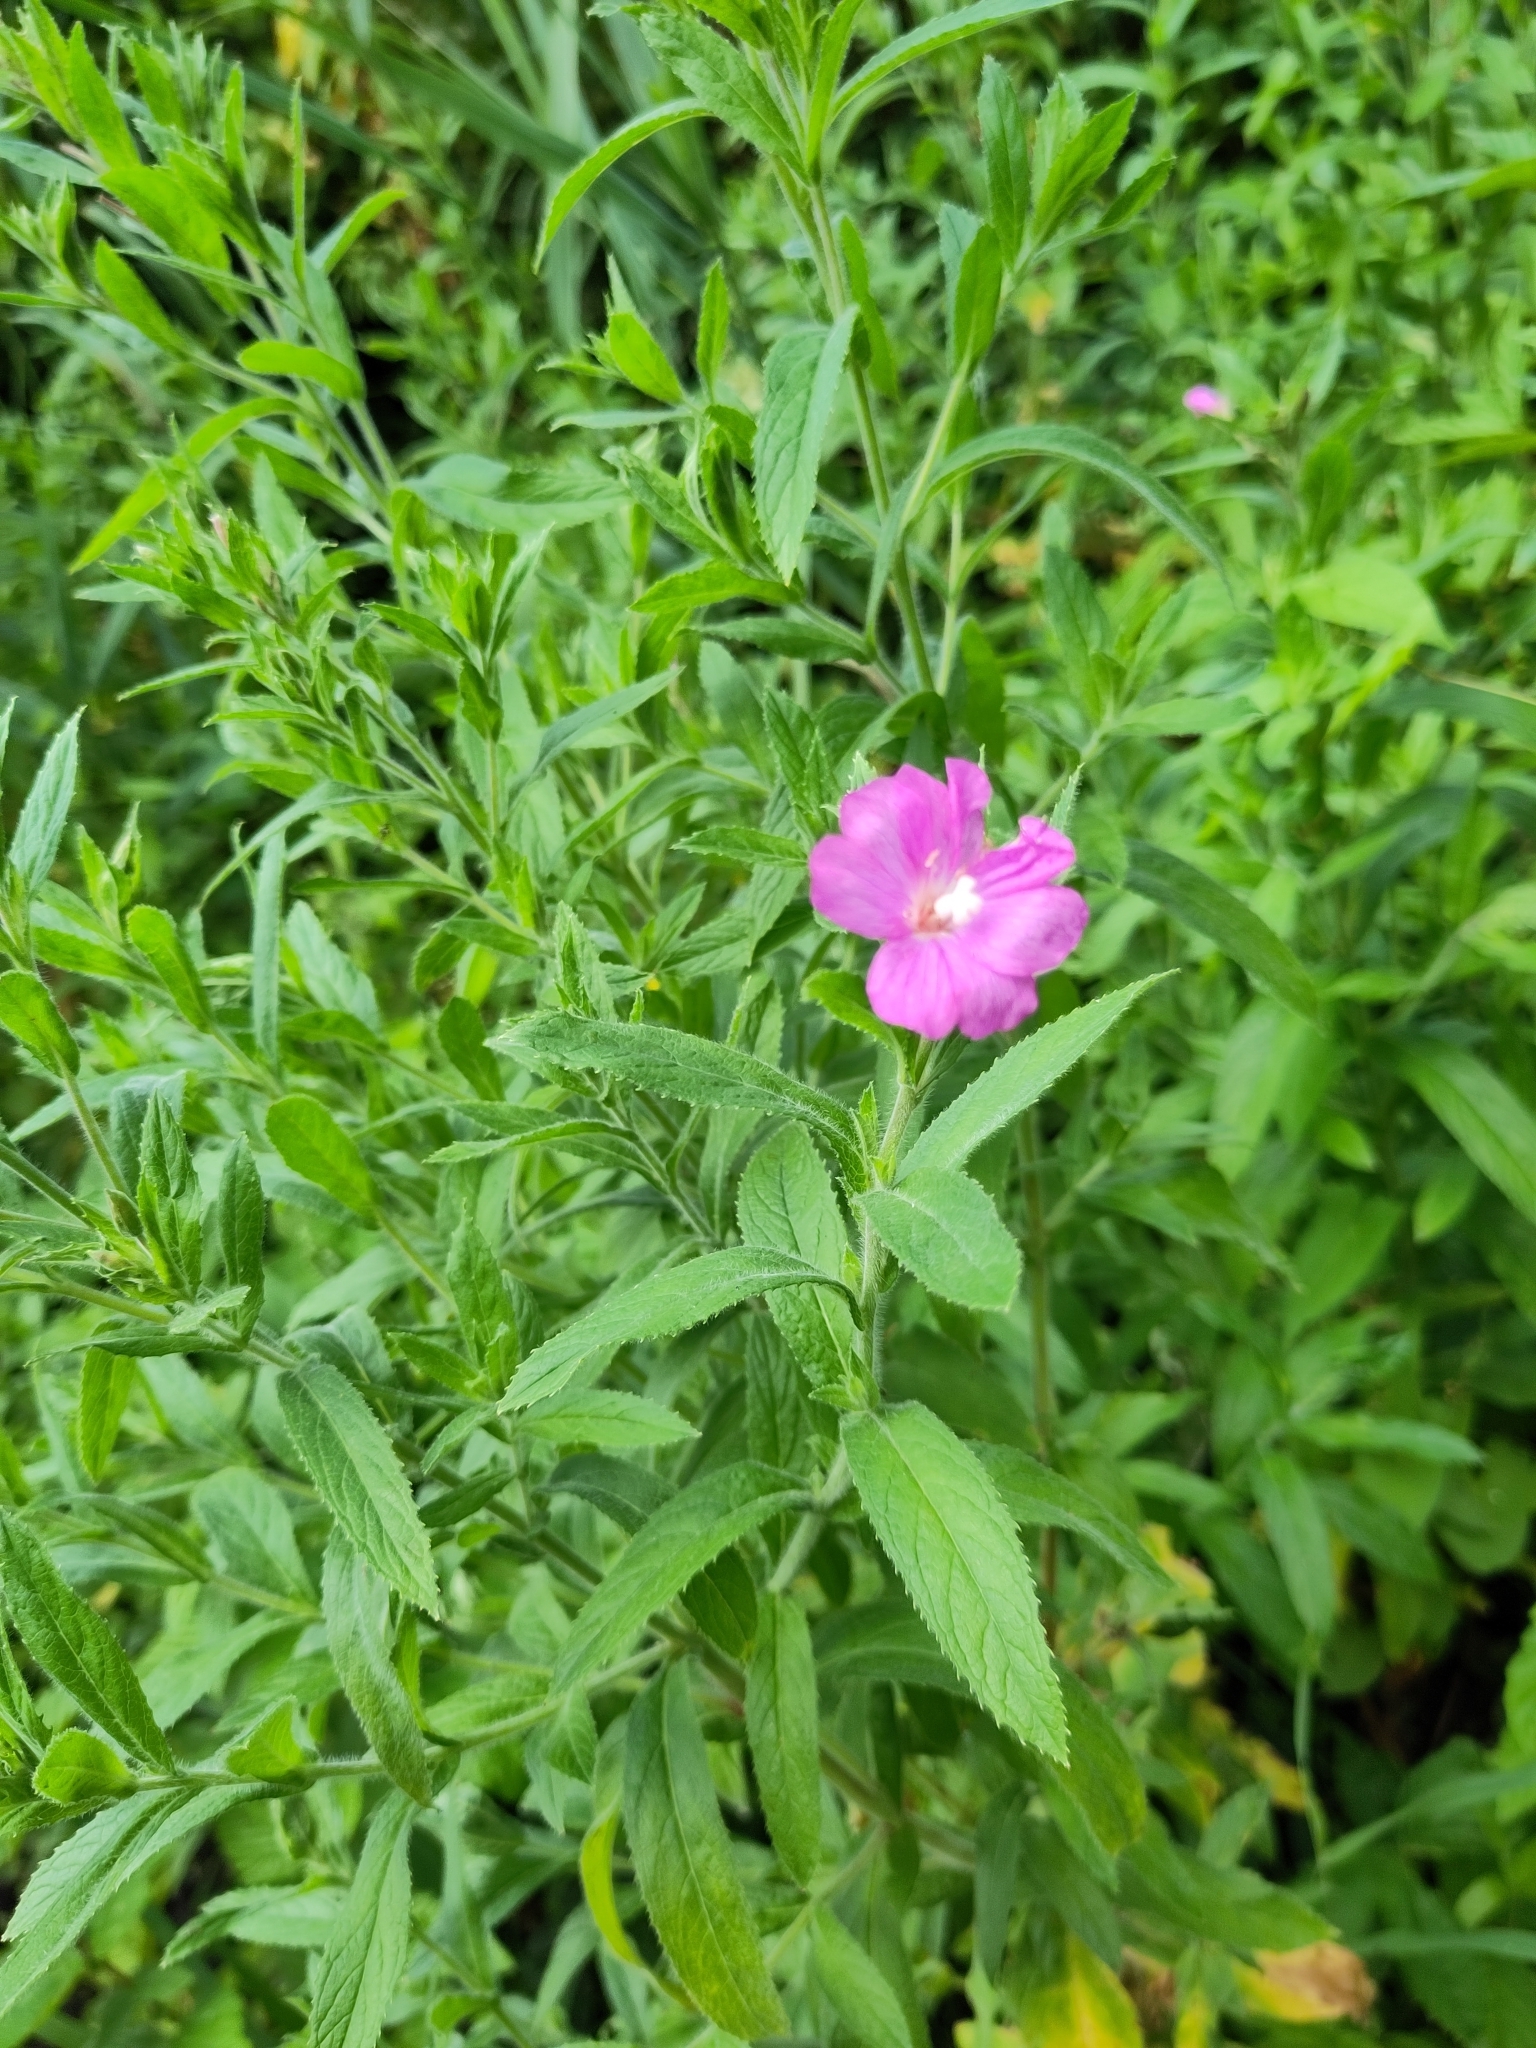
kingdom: Plantae
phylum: Tracheophyta
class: Magnoliopsida
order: Myrtales
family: Onagraceae
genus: Epilobium
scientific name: Epilobium hirsutum
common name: Great willowherb
